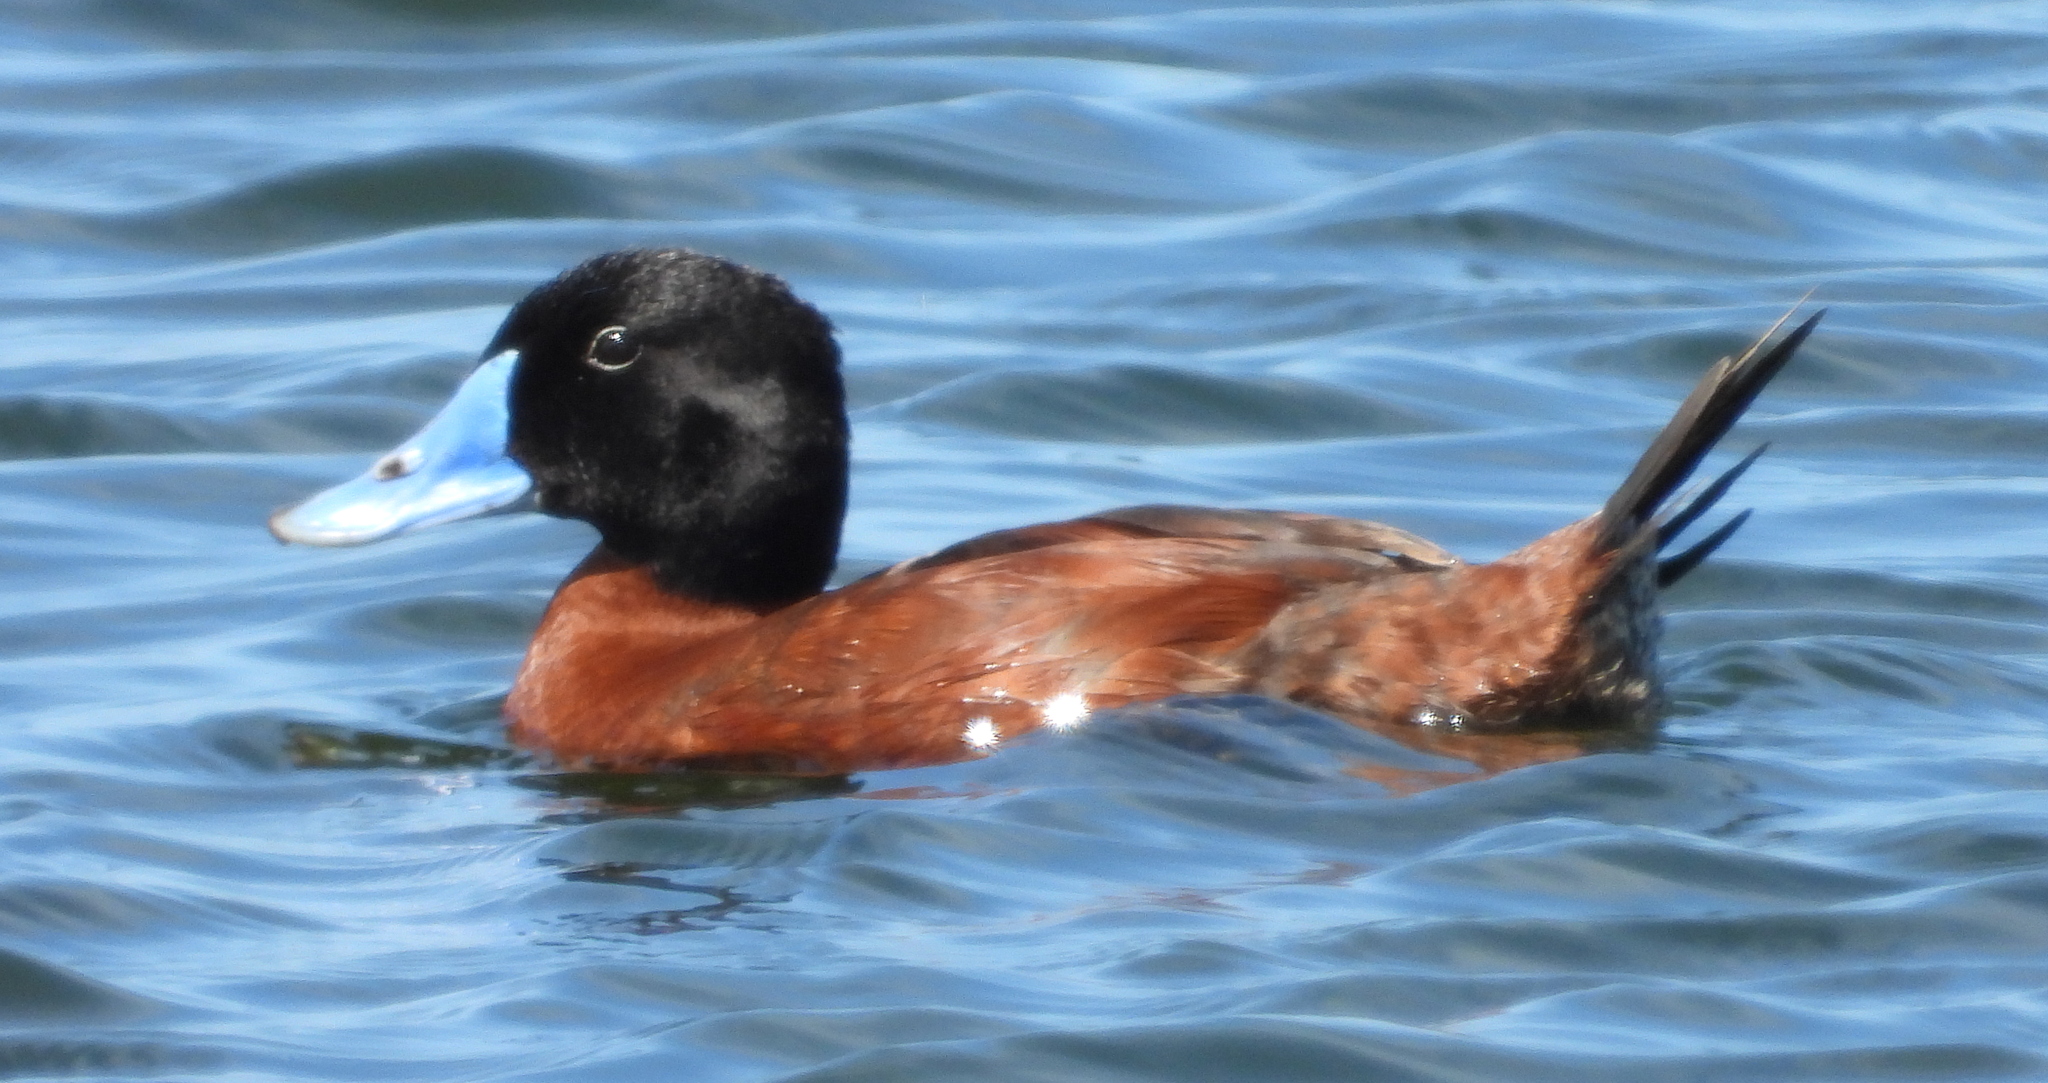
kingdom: Animalia
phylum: Chordata
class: Aves
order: Anseriformes
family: Anatidae
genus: Oxyura
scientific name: Oxyura maccoa
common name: Maccoa duck
